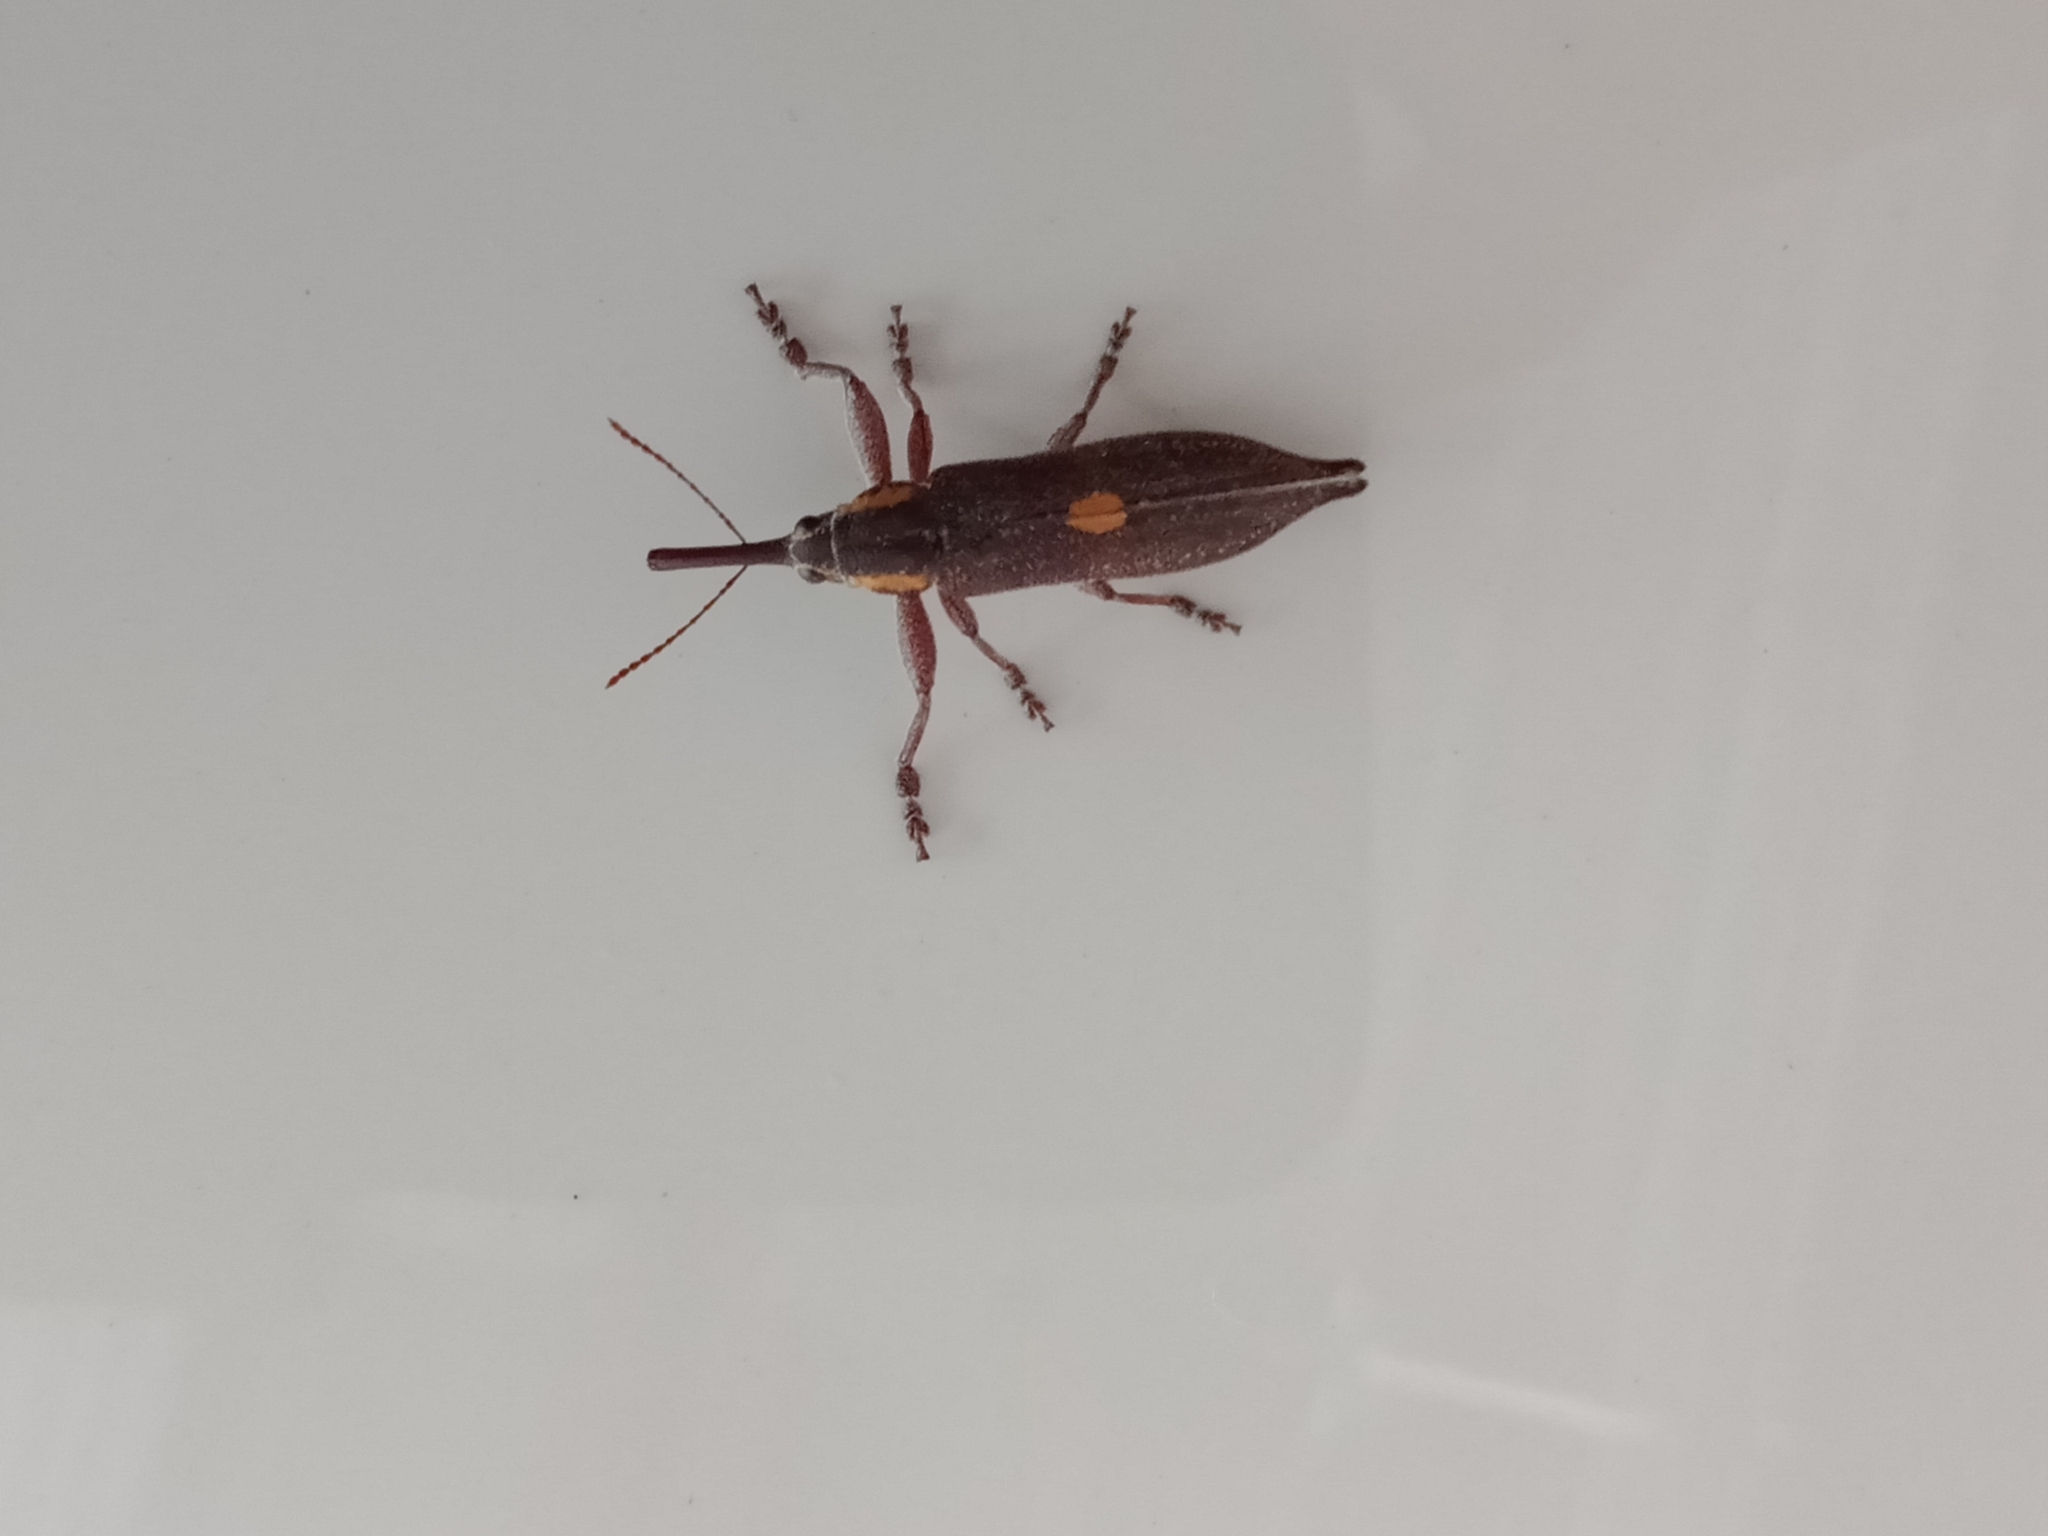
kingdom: Animalia
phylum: Arthropoda
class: Insecta
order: Coleoptera
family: Belidae
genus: Rhinotia
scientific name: Rhinotia
